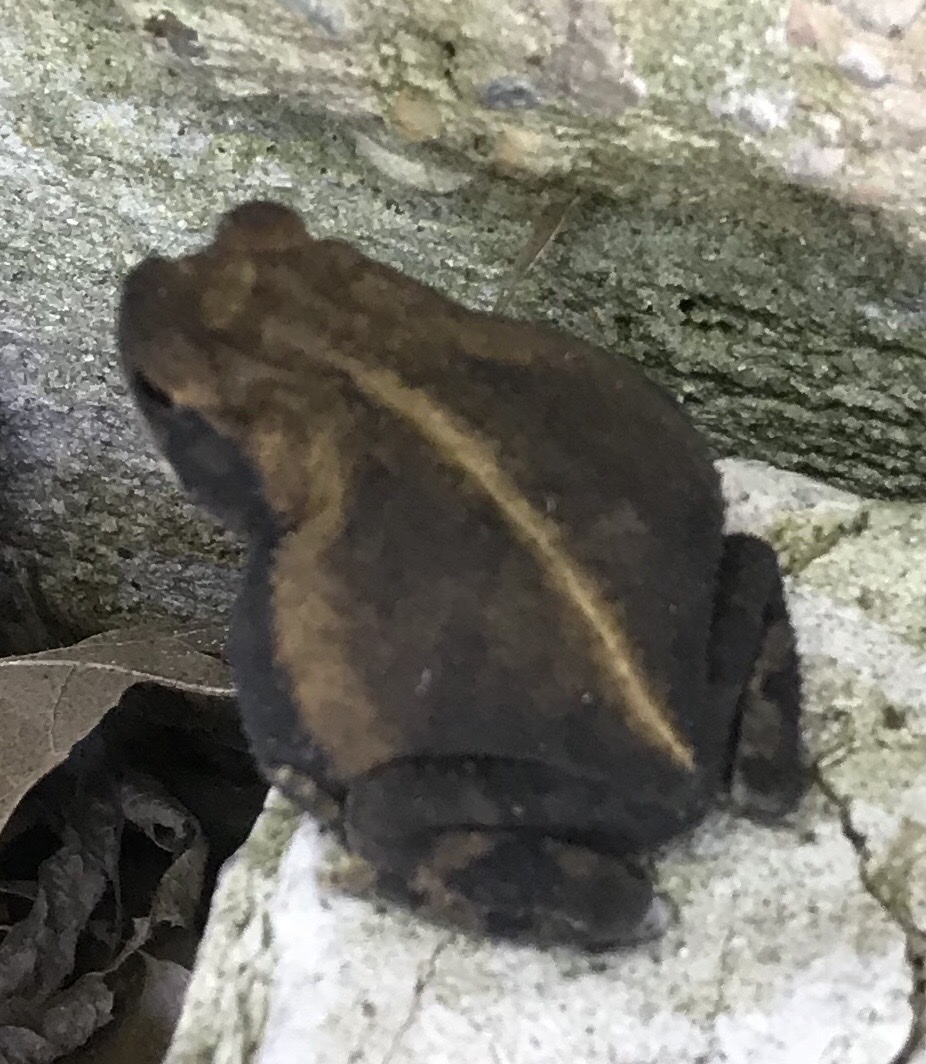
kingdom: Animalia
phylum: Chordata
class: Amphibia
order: Anura
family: Bufonidae
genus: Incilius
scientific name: Incilius nebulifer
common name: Gulf coast toad
